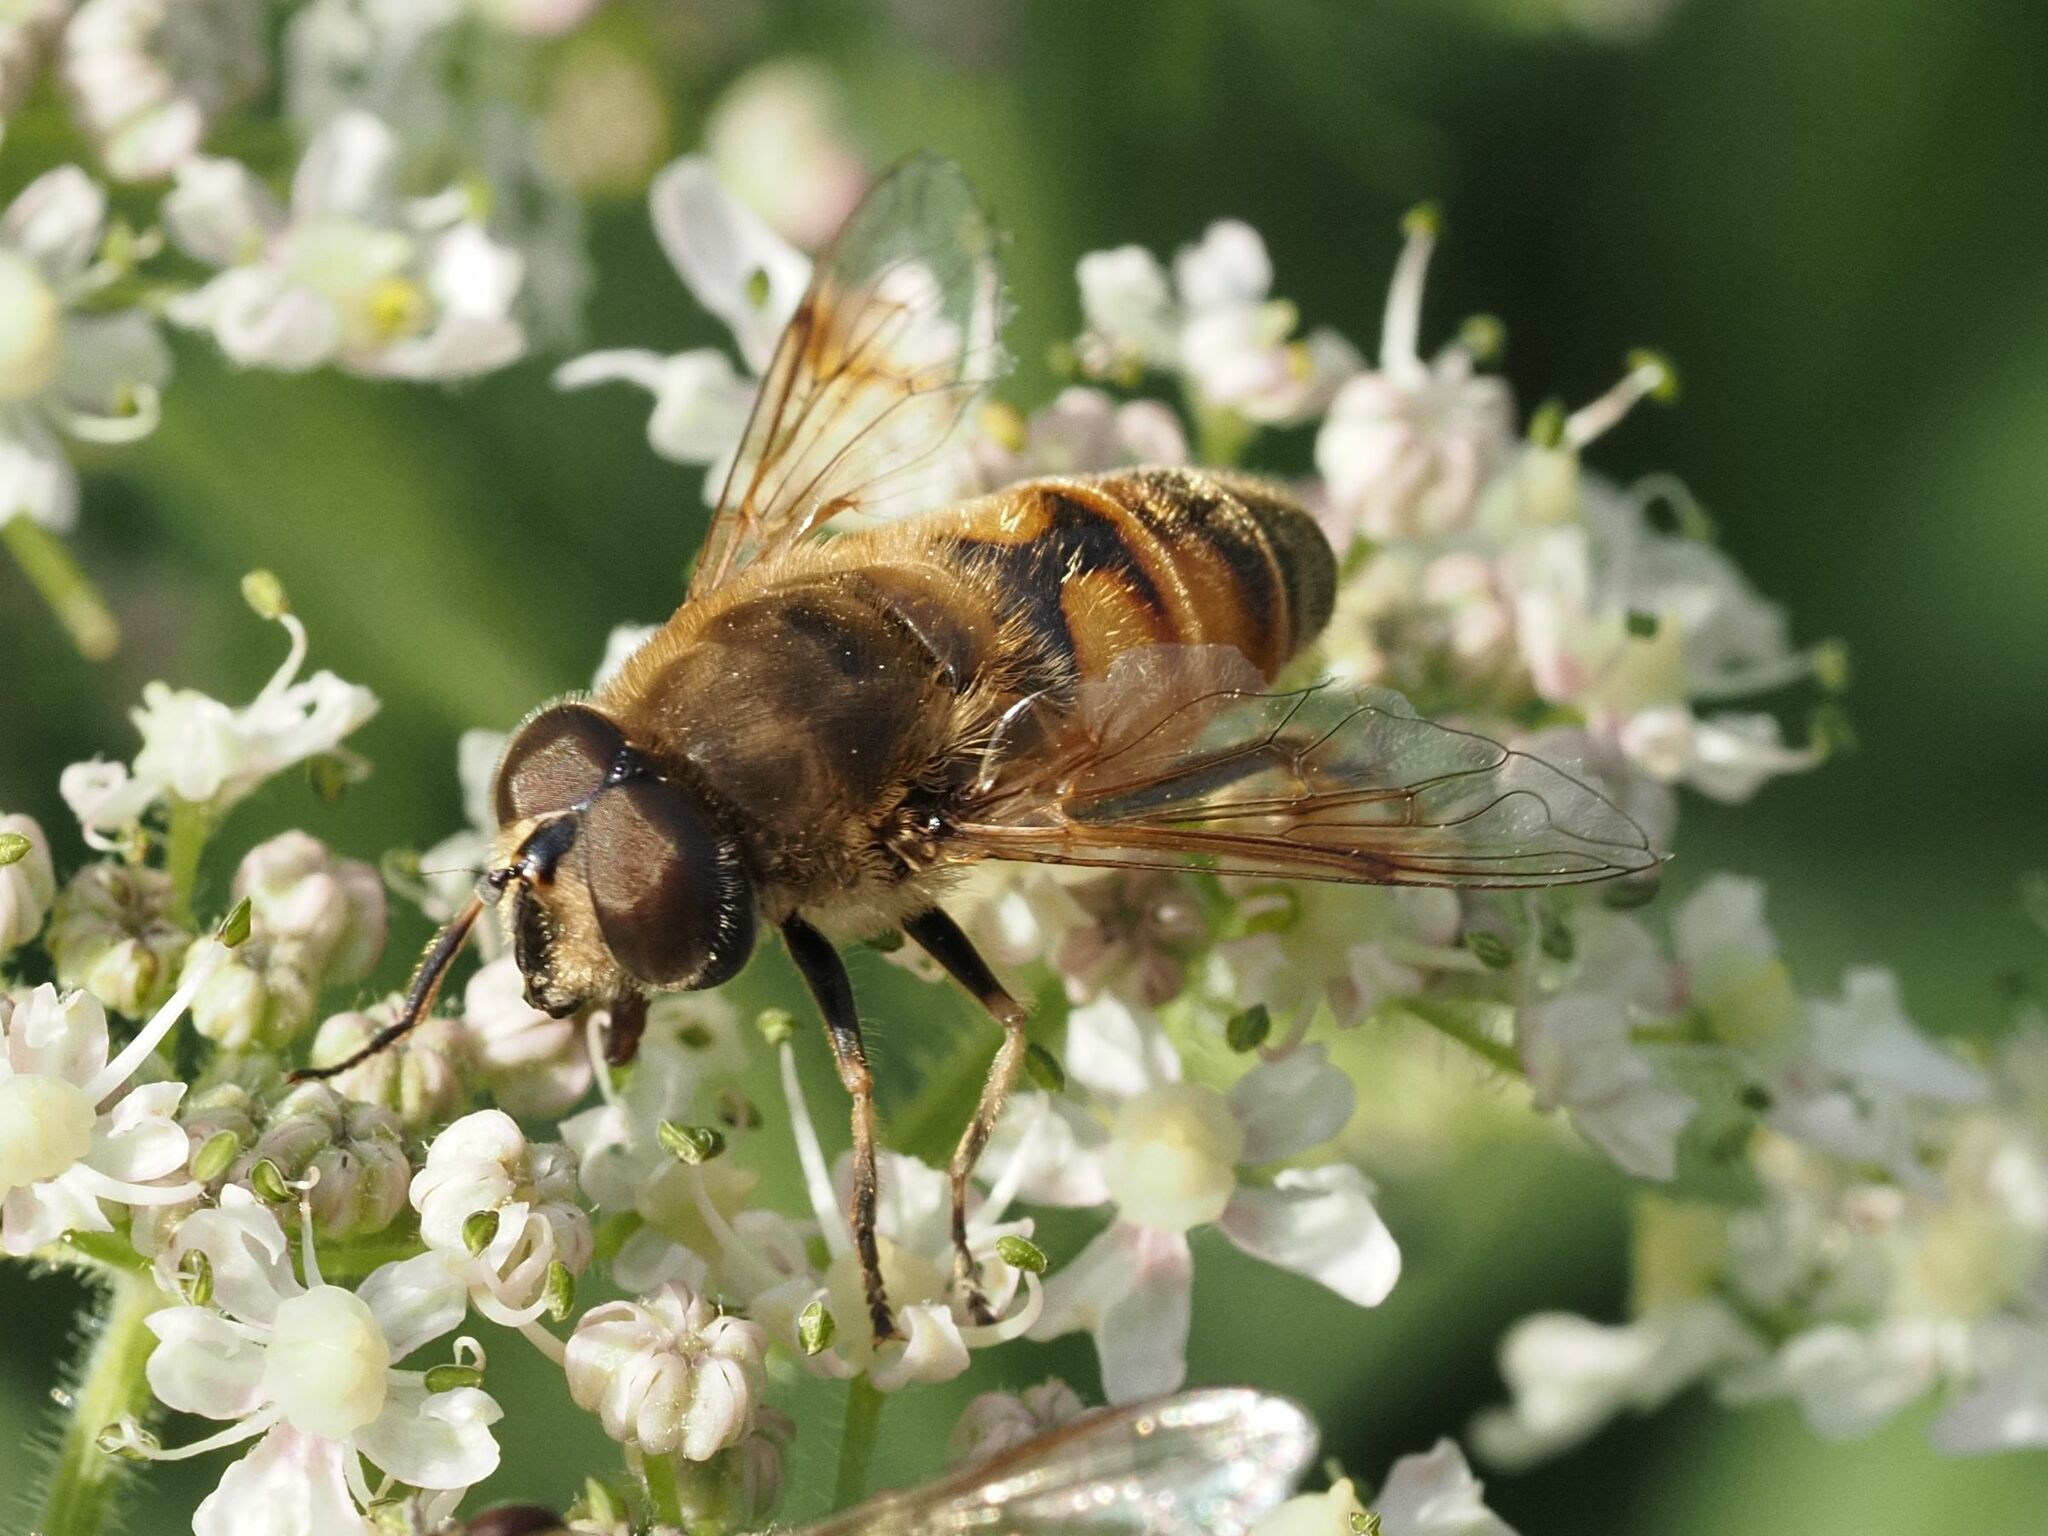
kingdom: Animalia
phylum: Arthropoda
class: Insecta
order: Diptera
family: Syrphidae
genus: Eristalis
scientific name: Eristalis tenax
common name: Drone fly
